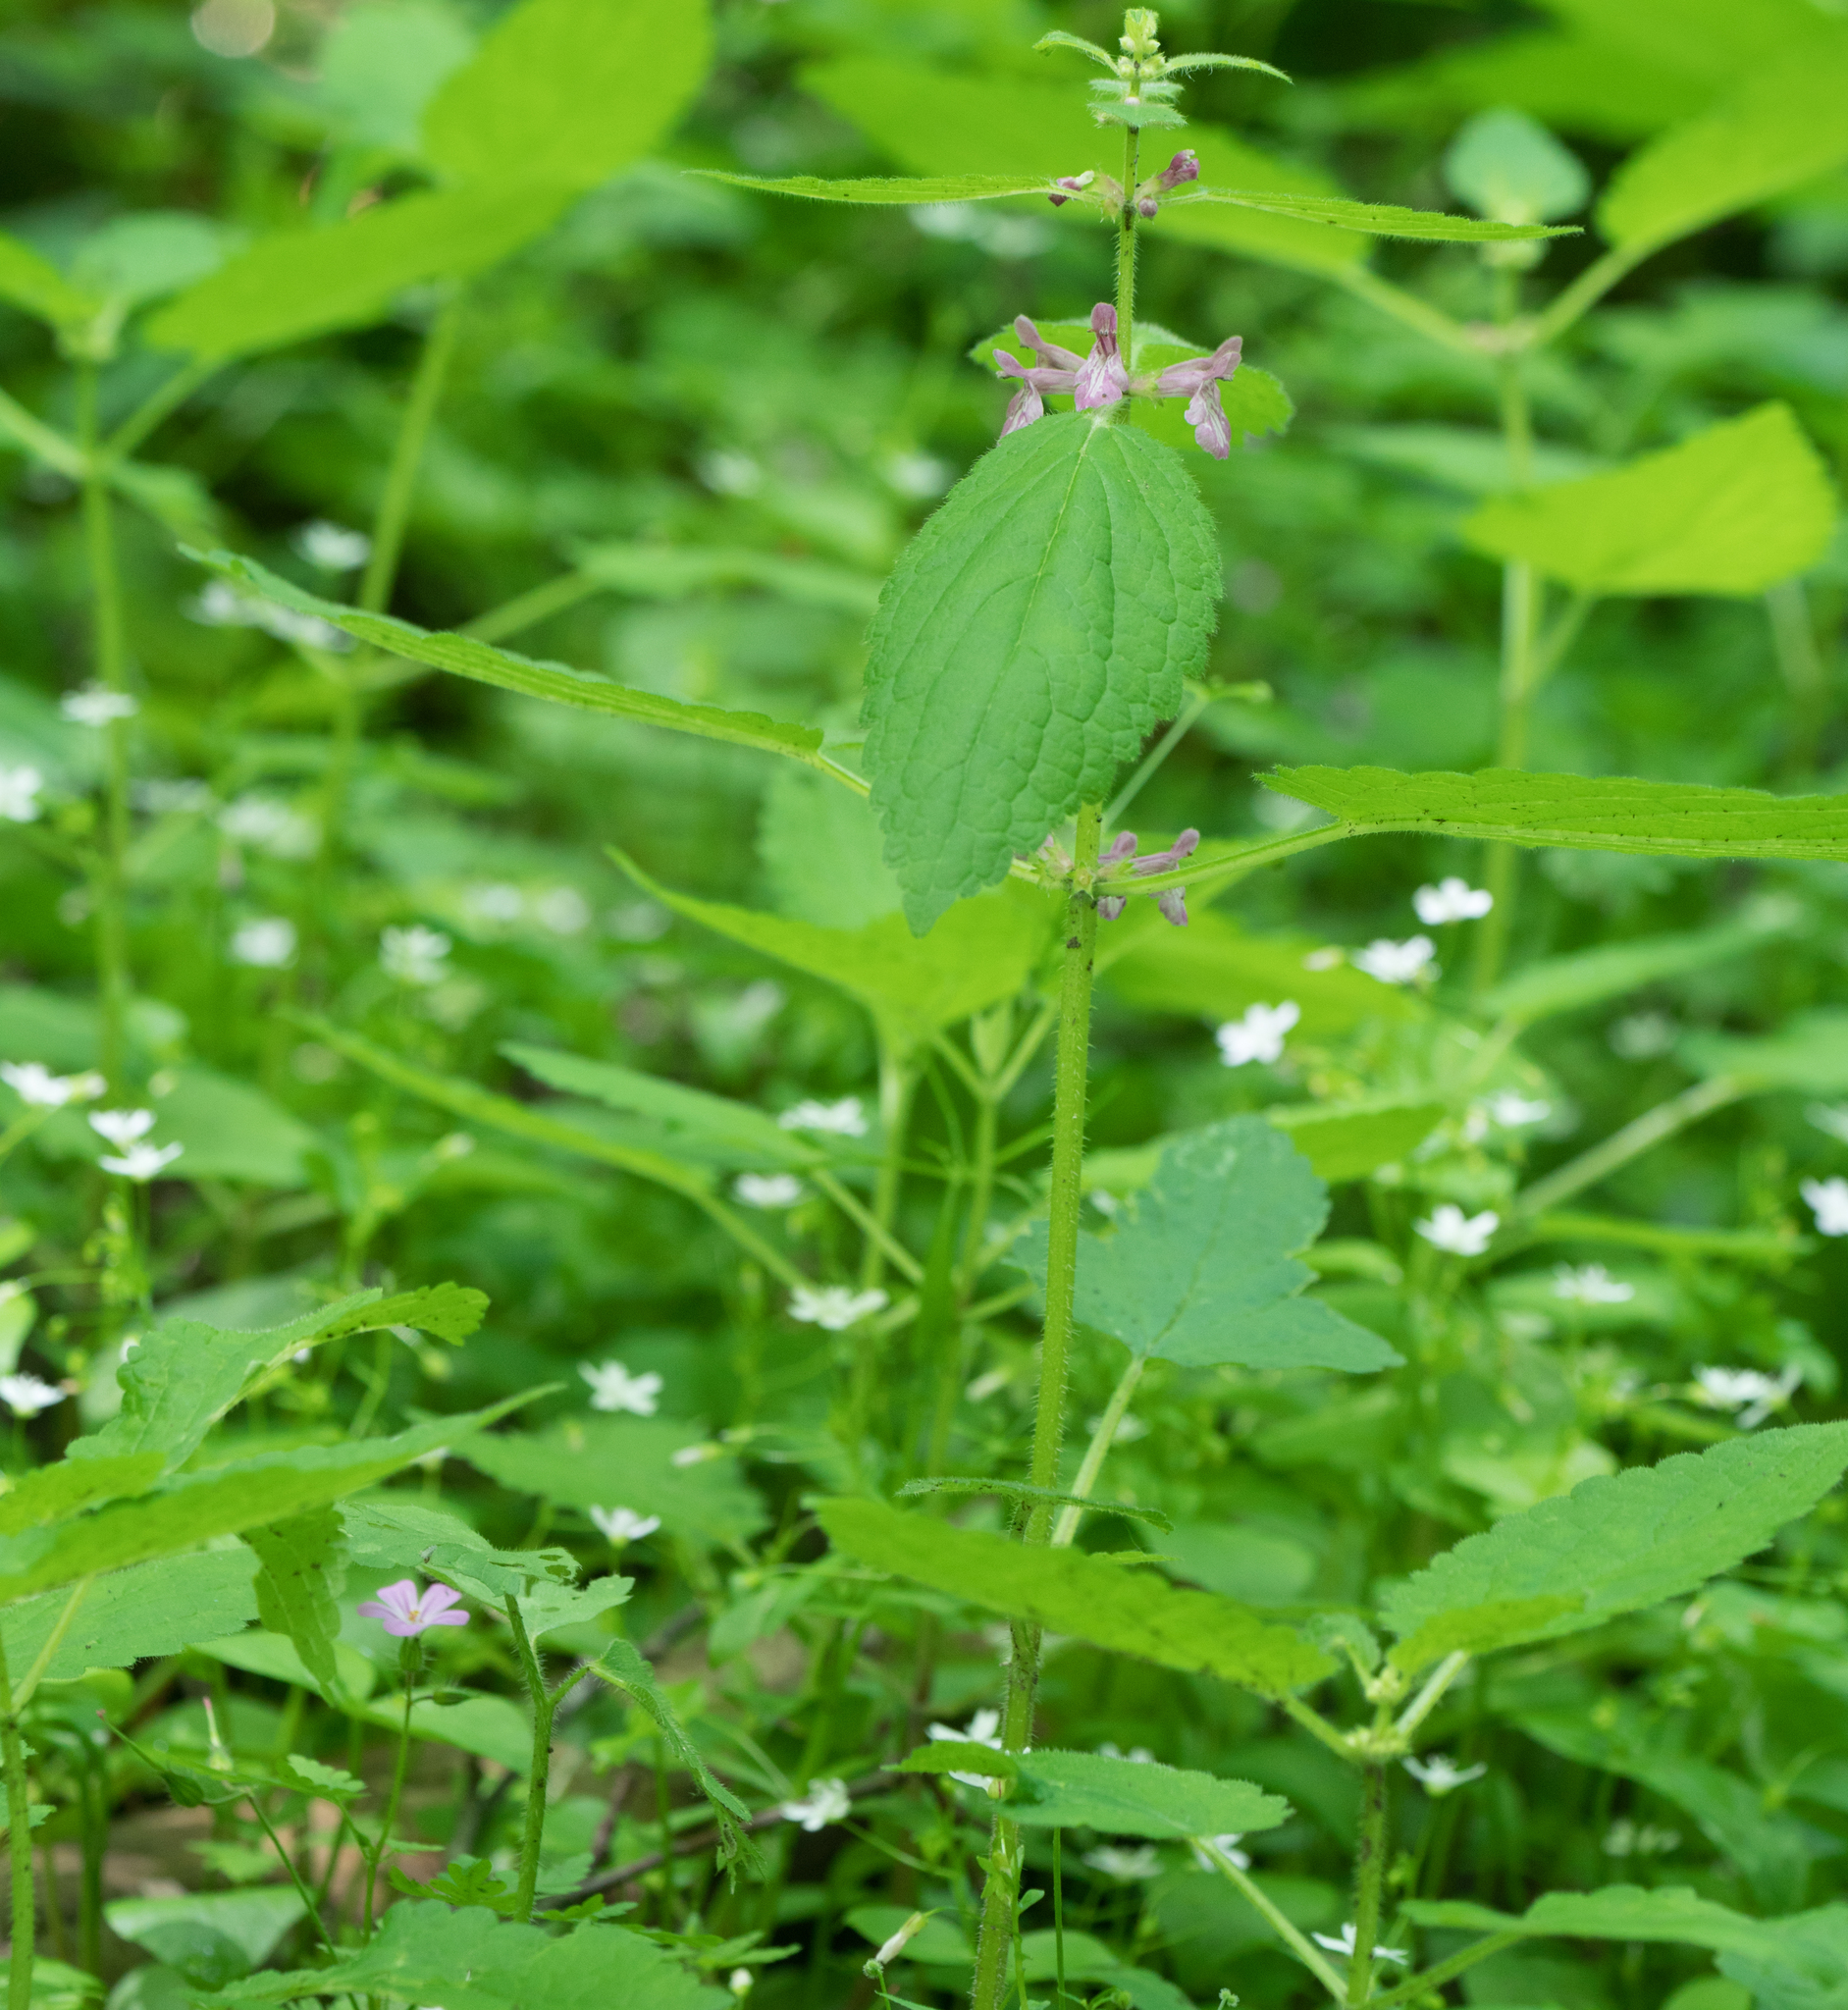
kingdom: Plantae
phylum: Tracheophyta
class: Magnoliopsida
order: Lamiales
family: Lamiaceae
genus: Stachys
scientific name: Stachys mexicana
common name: Mexican hedge-nettle
